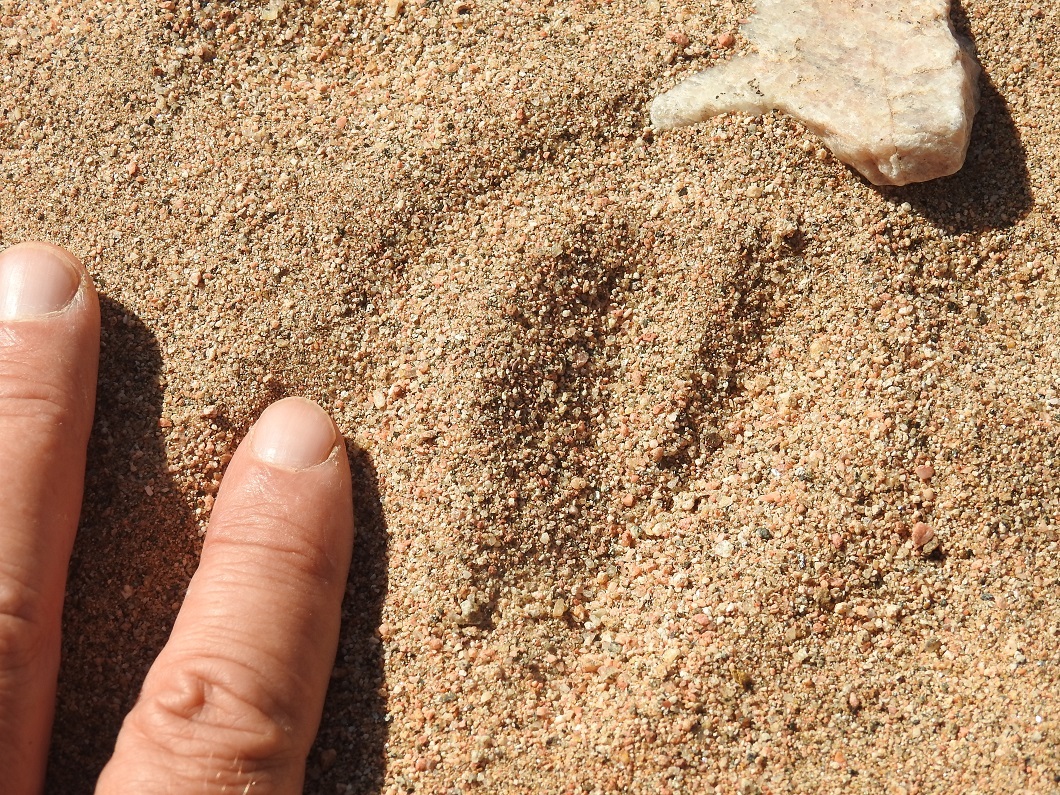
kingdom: Animalia
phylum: Chordata
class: Mammalia
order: Artiodactyla
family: Bovidae
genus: Gazella
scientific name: Gazella dorcas
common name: Dorcas gazelle
